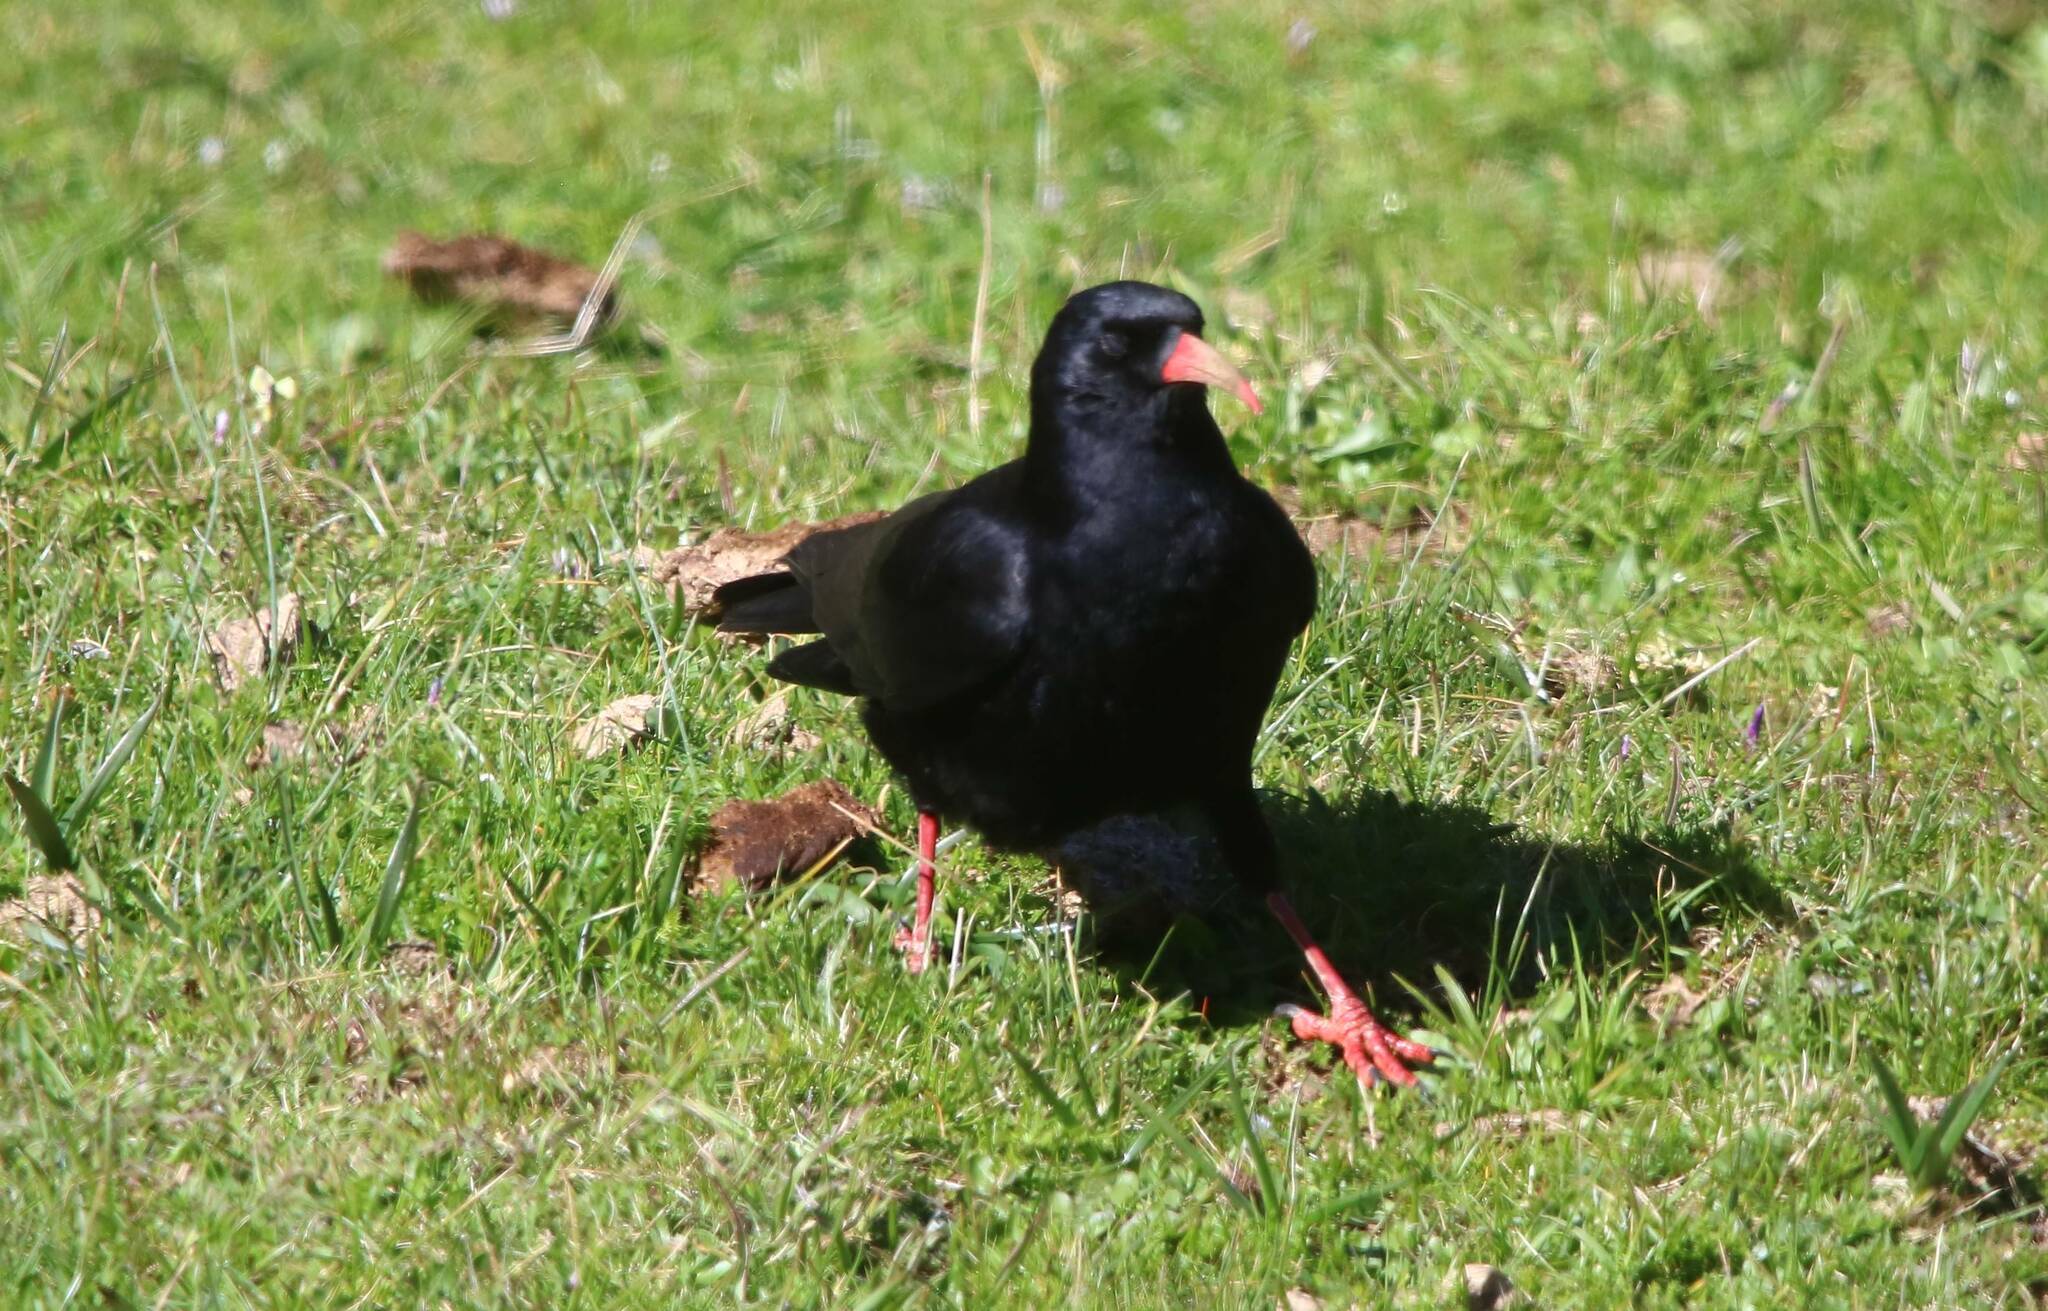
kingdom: Animalia
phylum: Chordata
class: Aves
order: Passeriformes
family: Corvidae
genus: Pyrrhocorax
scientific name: Pyrrhocorax pyrrhocorax
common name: Red-billed chough
